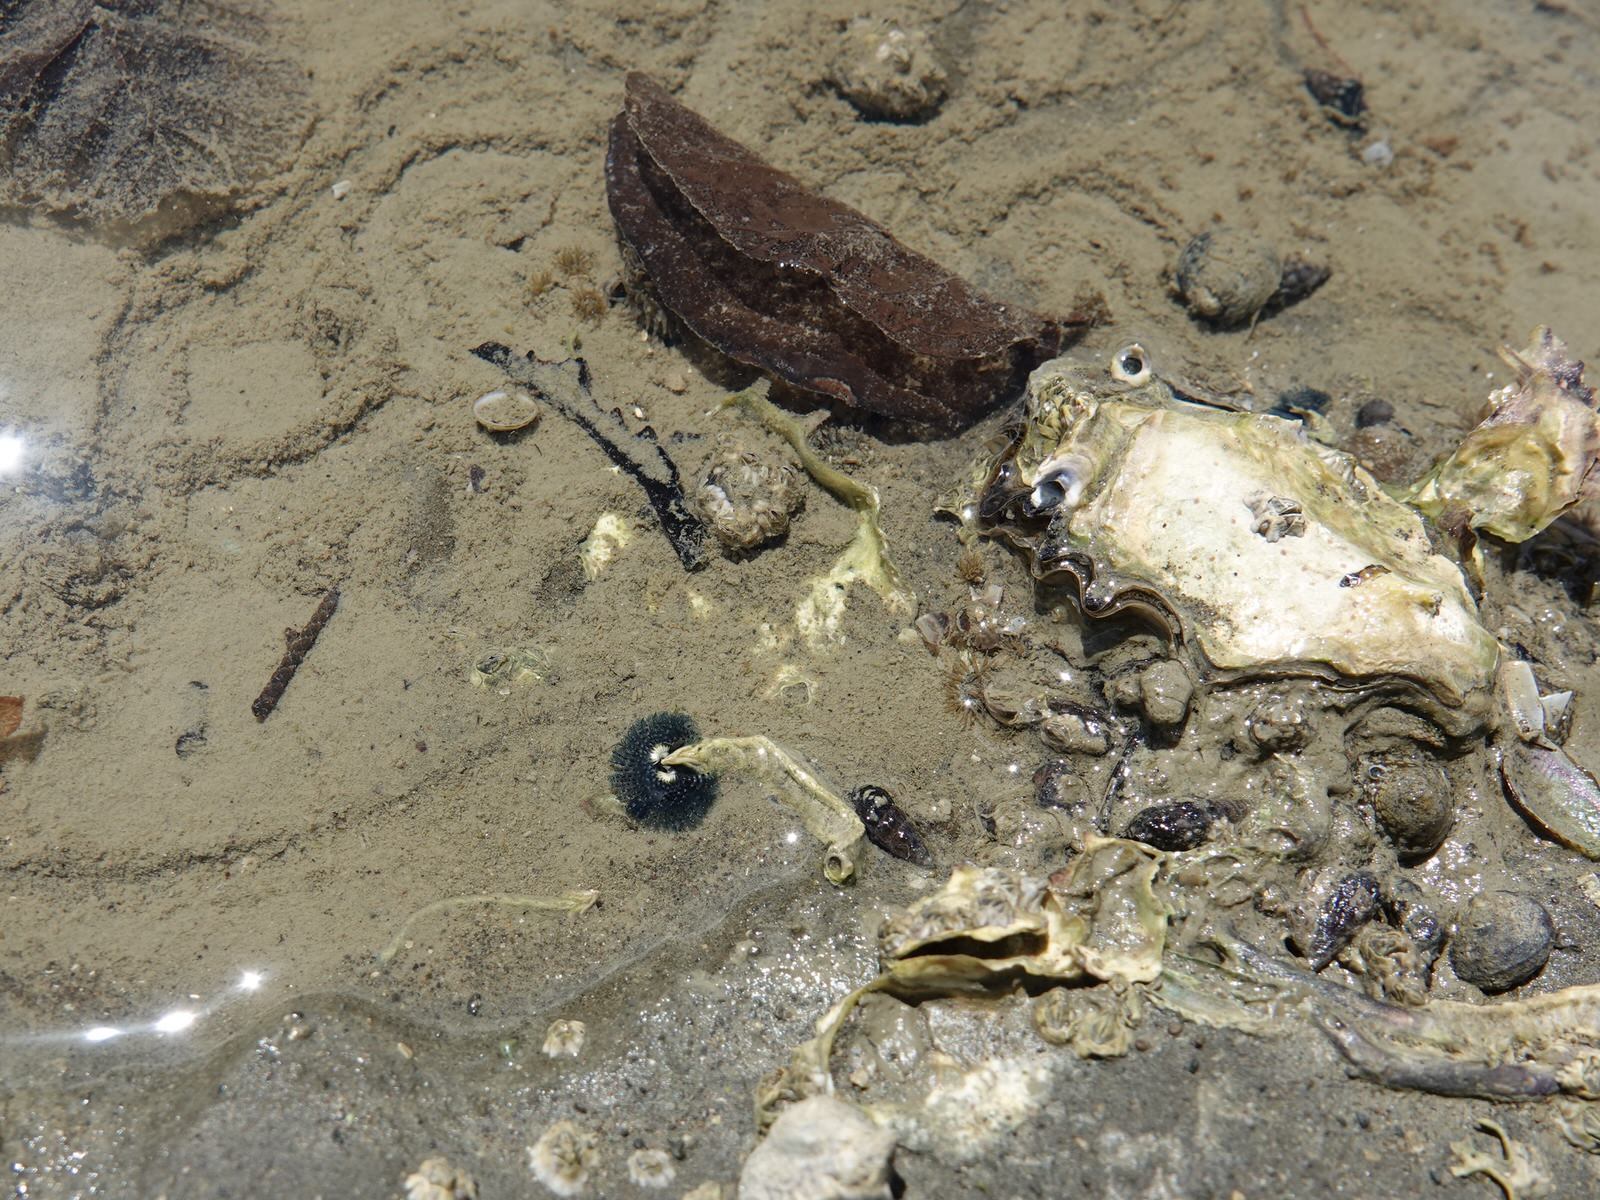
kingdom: Animalia
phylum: Annelida
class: Polychaeta
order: Sabellida
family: Serpulidae
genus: Spirobranchus
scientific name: Spirobranchus cariniferus
